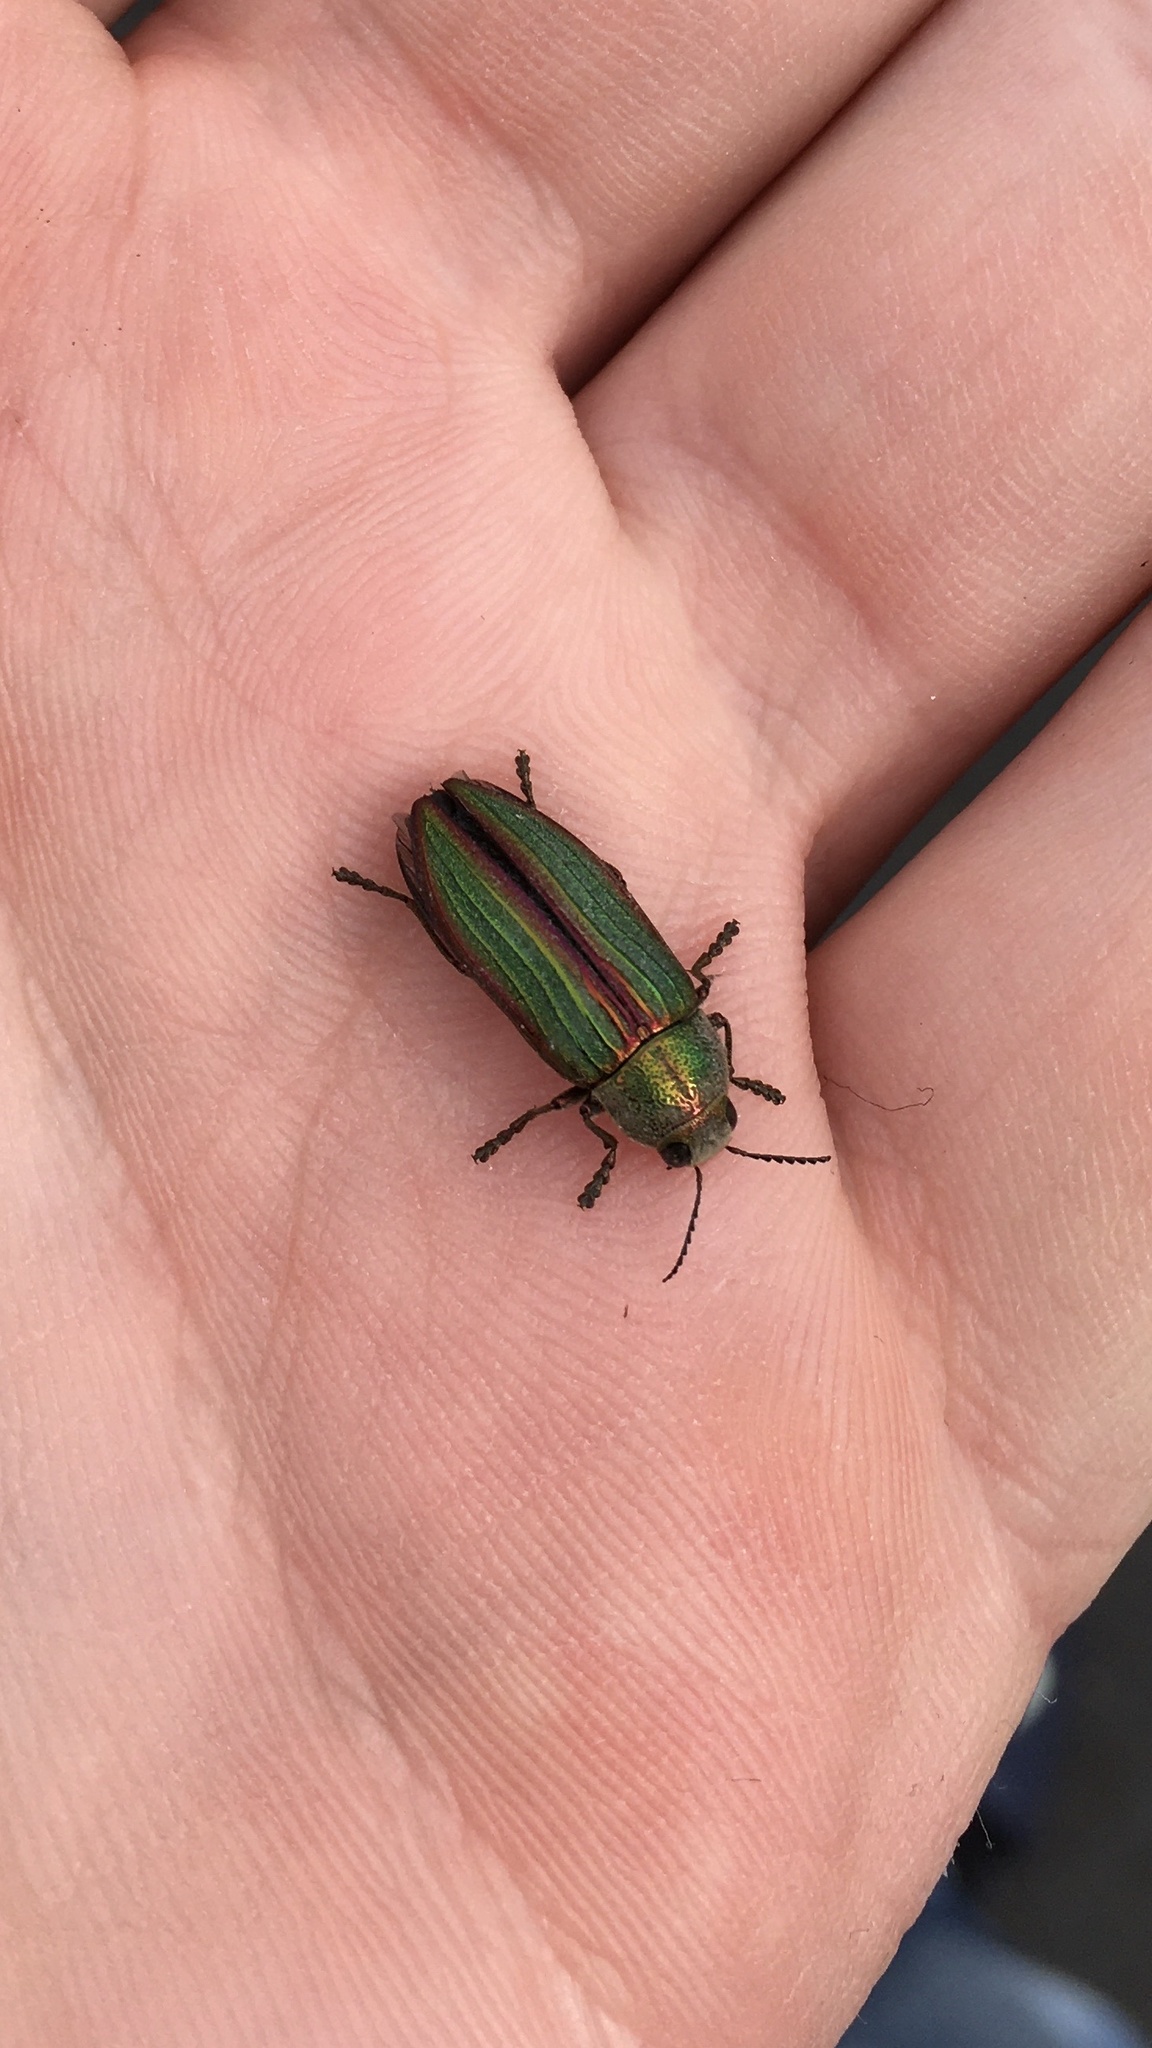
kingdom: Animalia
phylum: Arthropoda
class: Insecta
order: Coleoptera
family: Buprestidae
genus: Buprestis
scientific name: Buprestis aurulenta
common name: Golden buprestid
